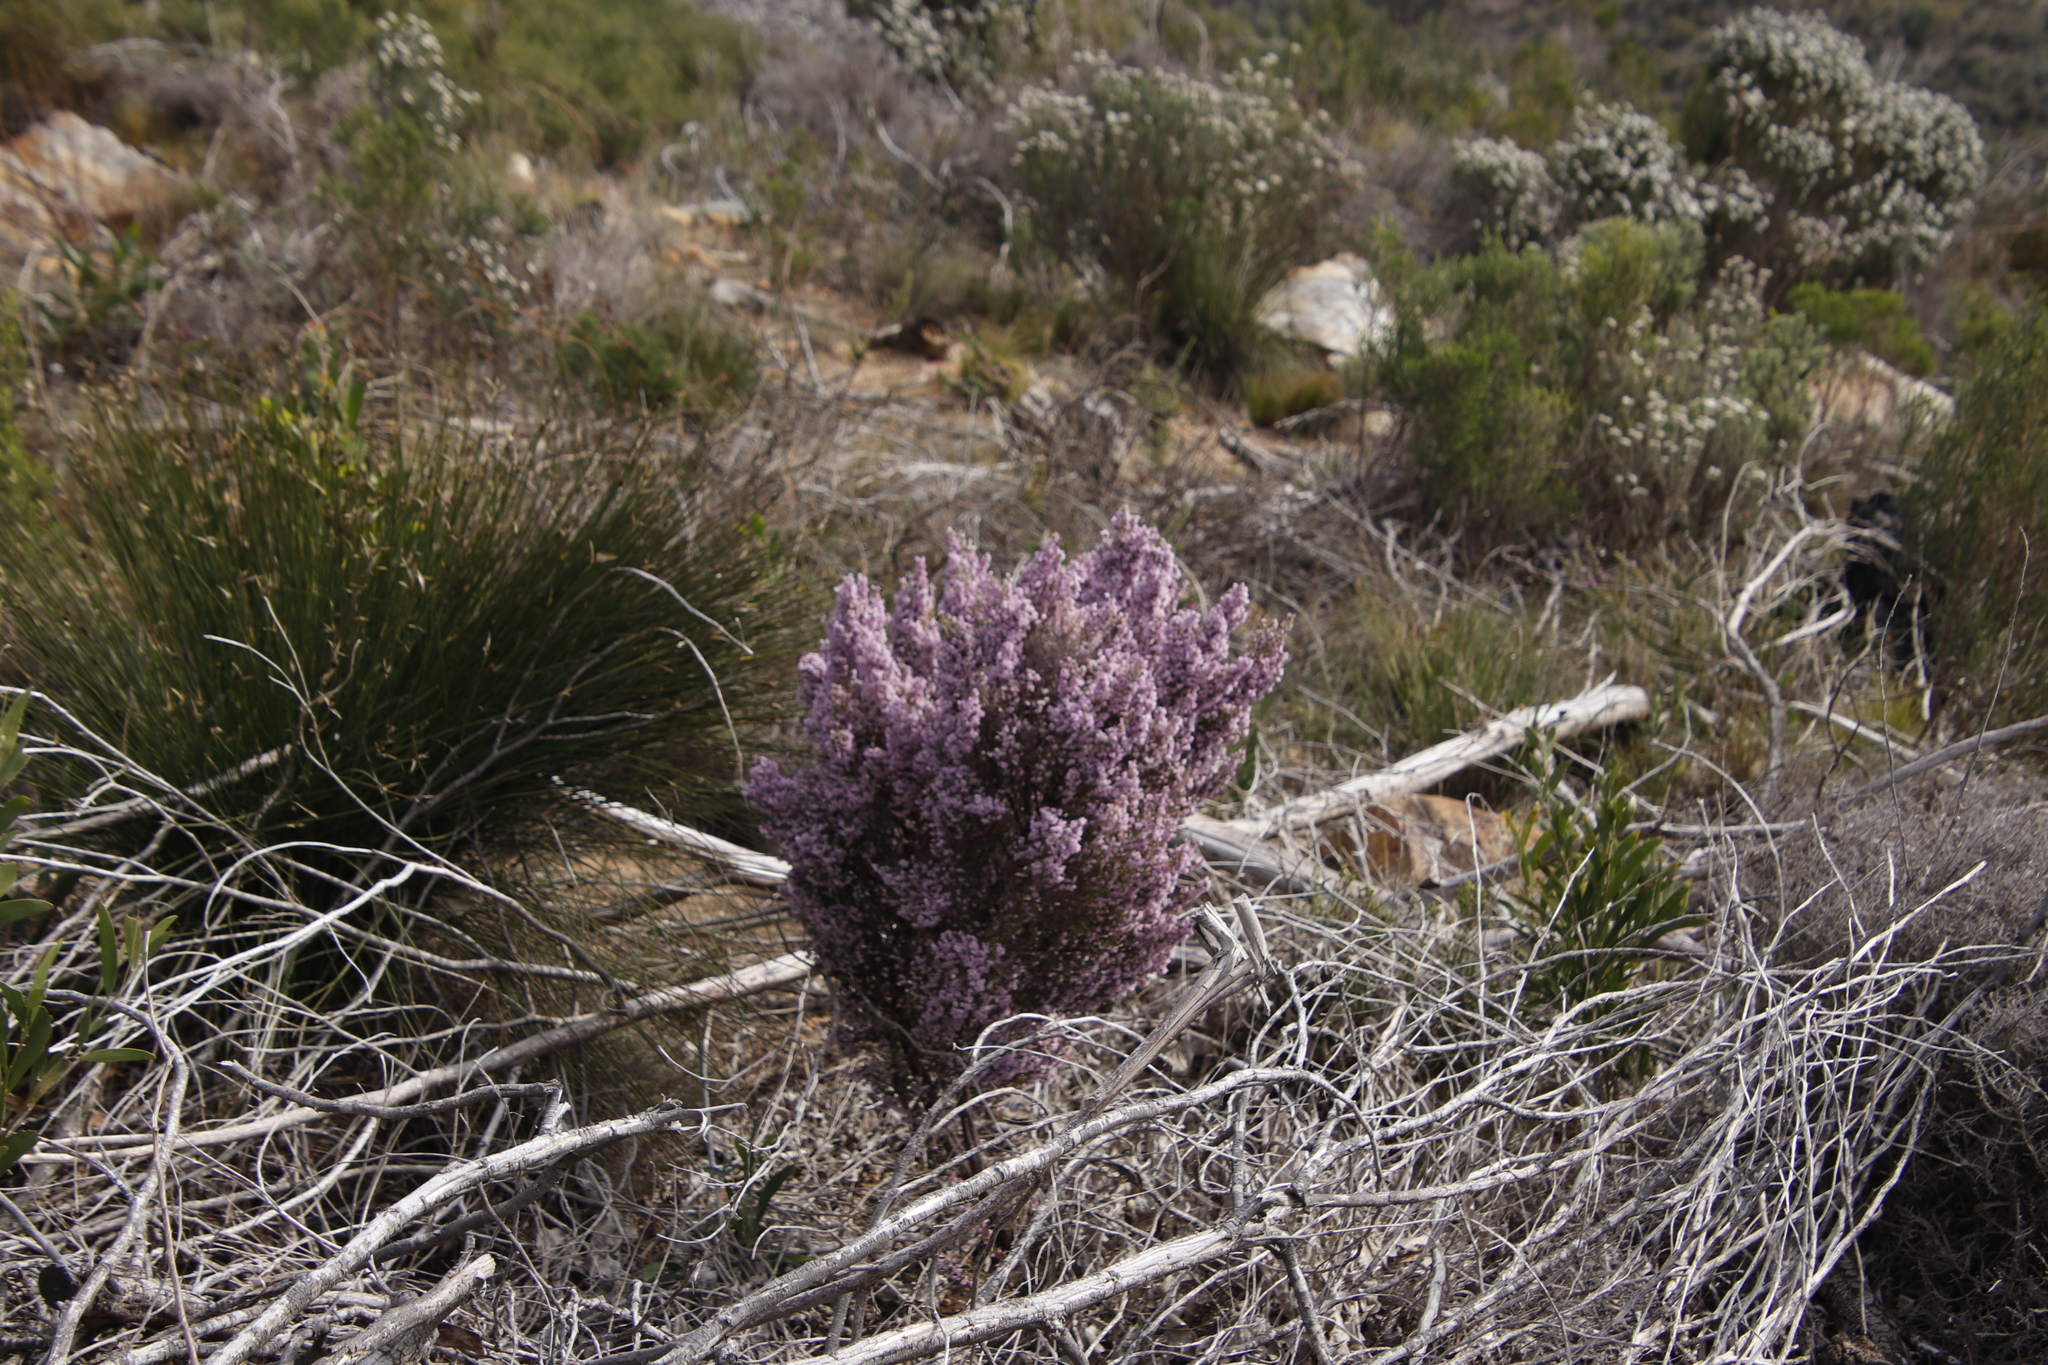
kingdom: Plantae
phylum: Tracheophyta
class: Magnoliopsida
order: Ericales
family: Ericaceae
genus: Erica
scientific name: Erica mauritanica
